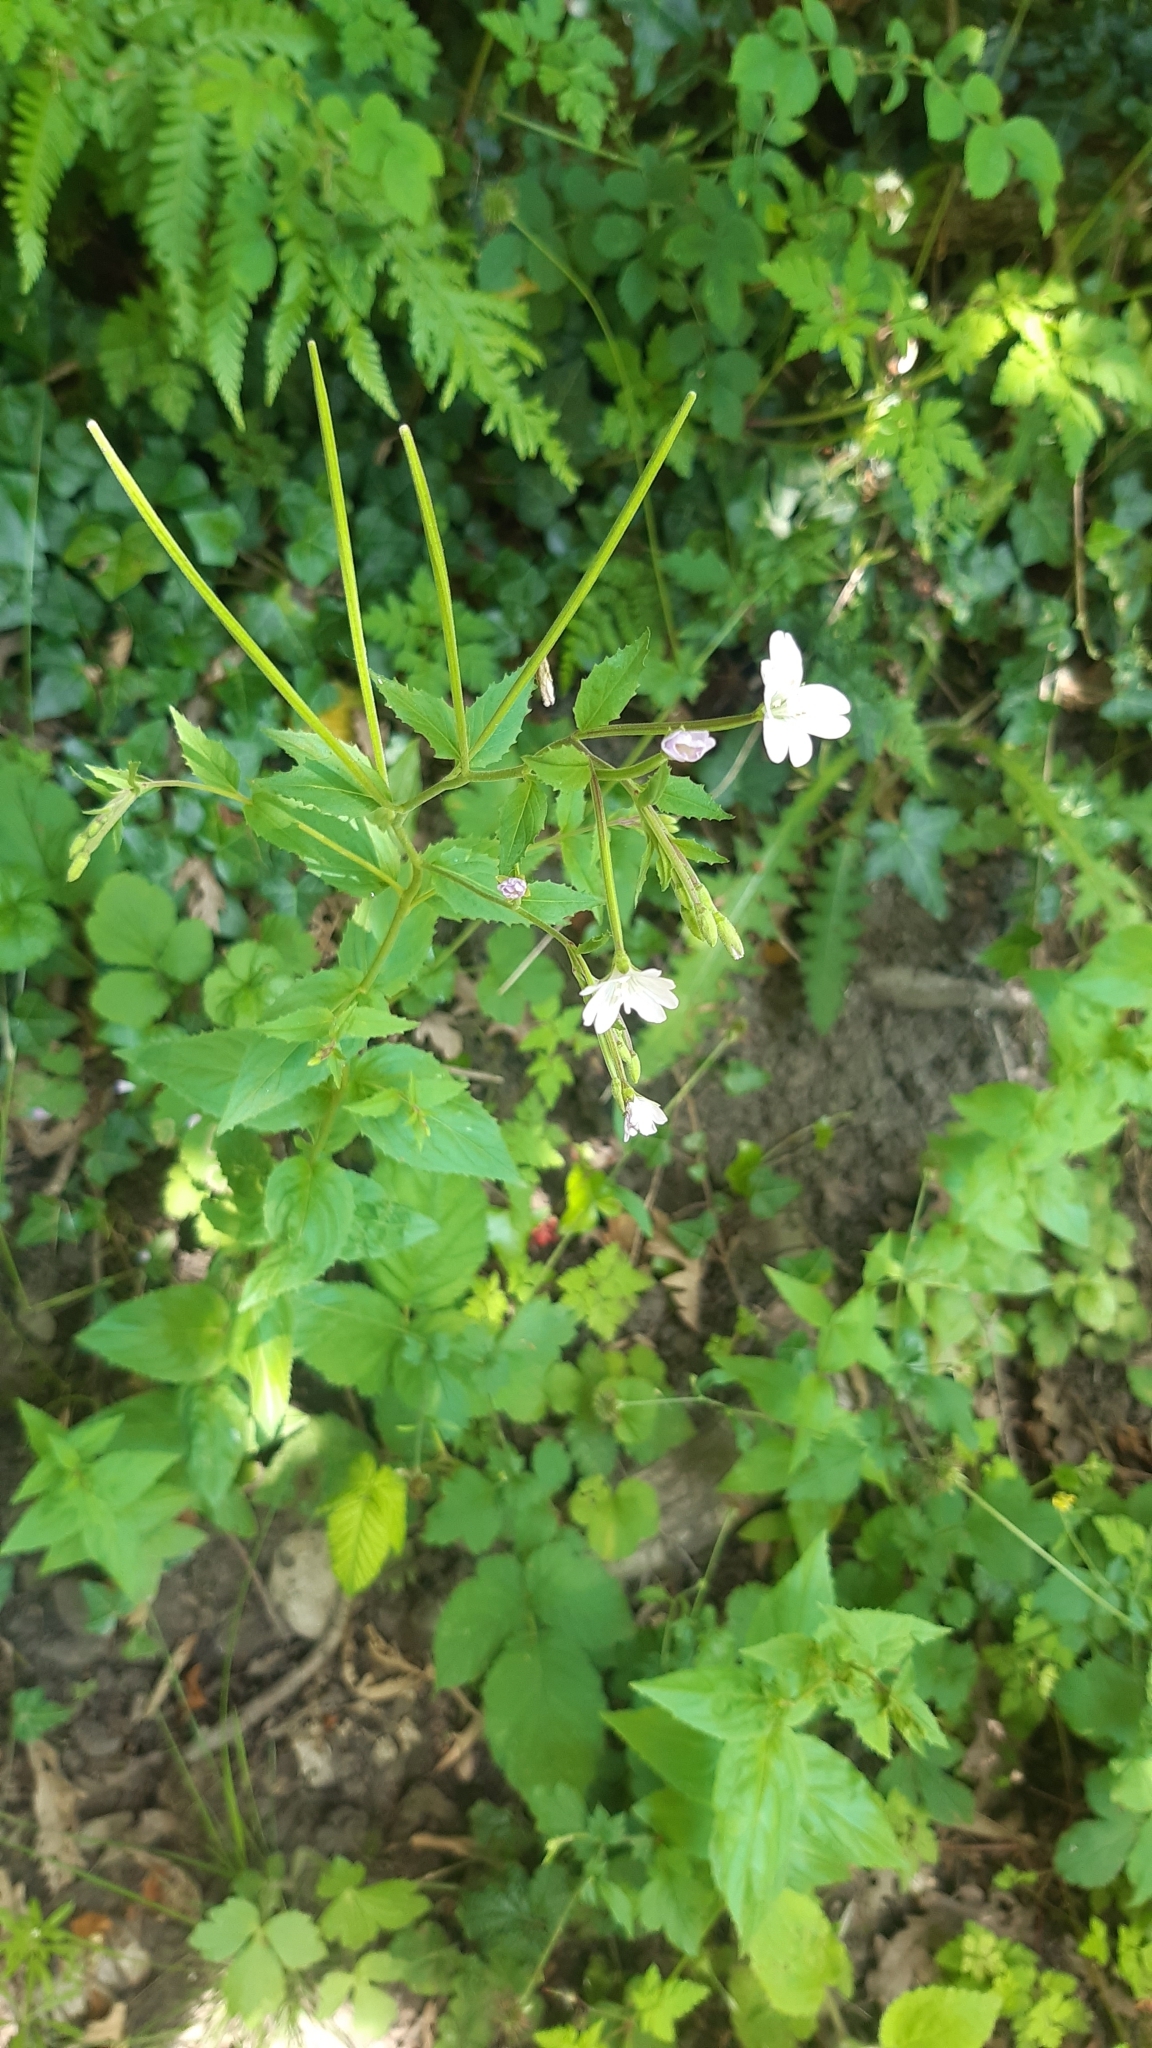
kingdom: Plantae
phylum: Tracheophyta
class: Magnoliopsida
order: Myrtales
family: Onagraceae
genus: Epilobium
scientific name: Epilobium montanum
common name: Broad-leaved willowherb
